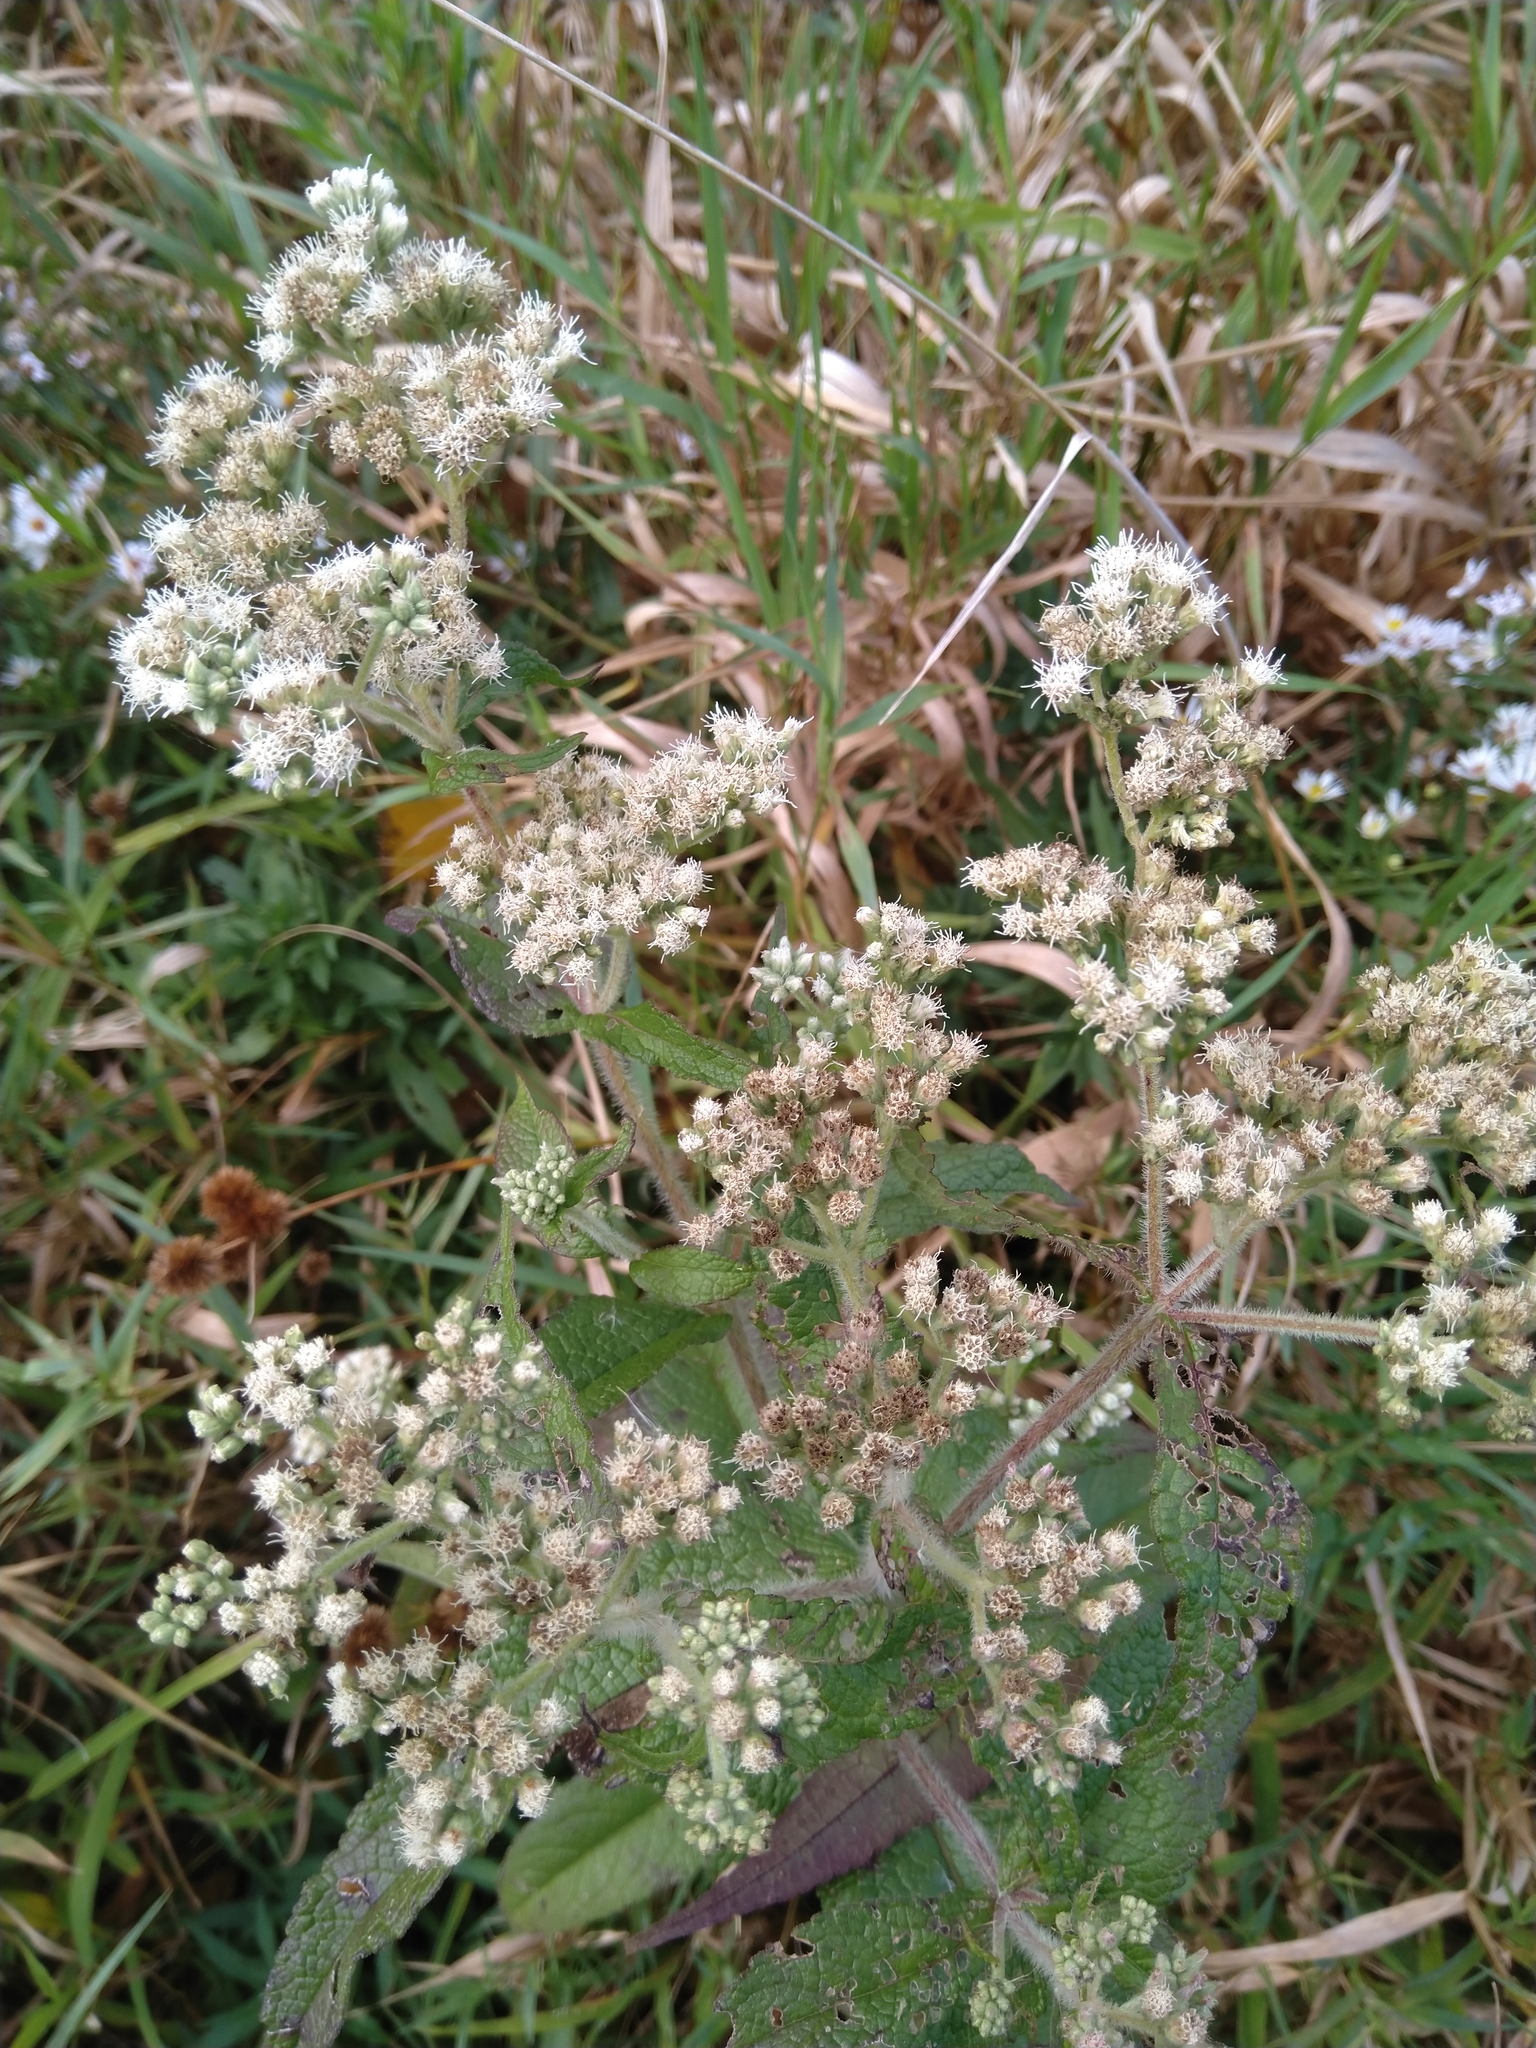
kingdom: Plantae
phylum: Tracheophyta
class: Magnoliopsida
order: Asterales
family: Asteraceae
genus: Eupatorium
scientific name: Eupatorium perfoliatum
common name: Boneset
